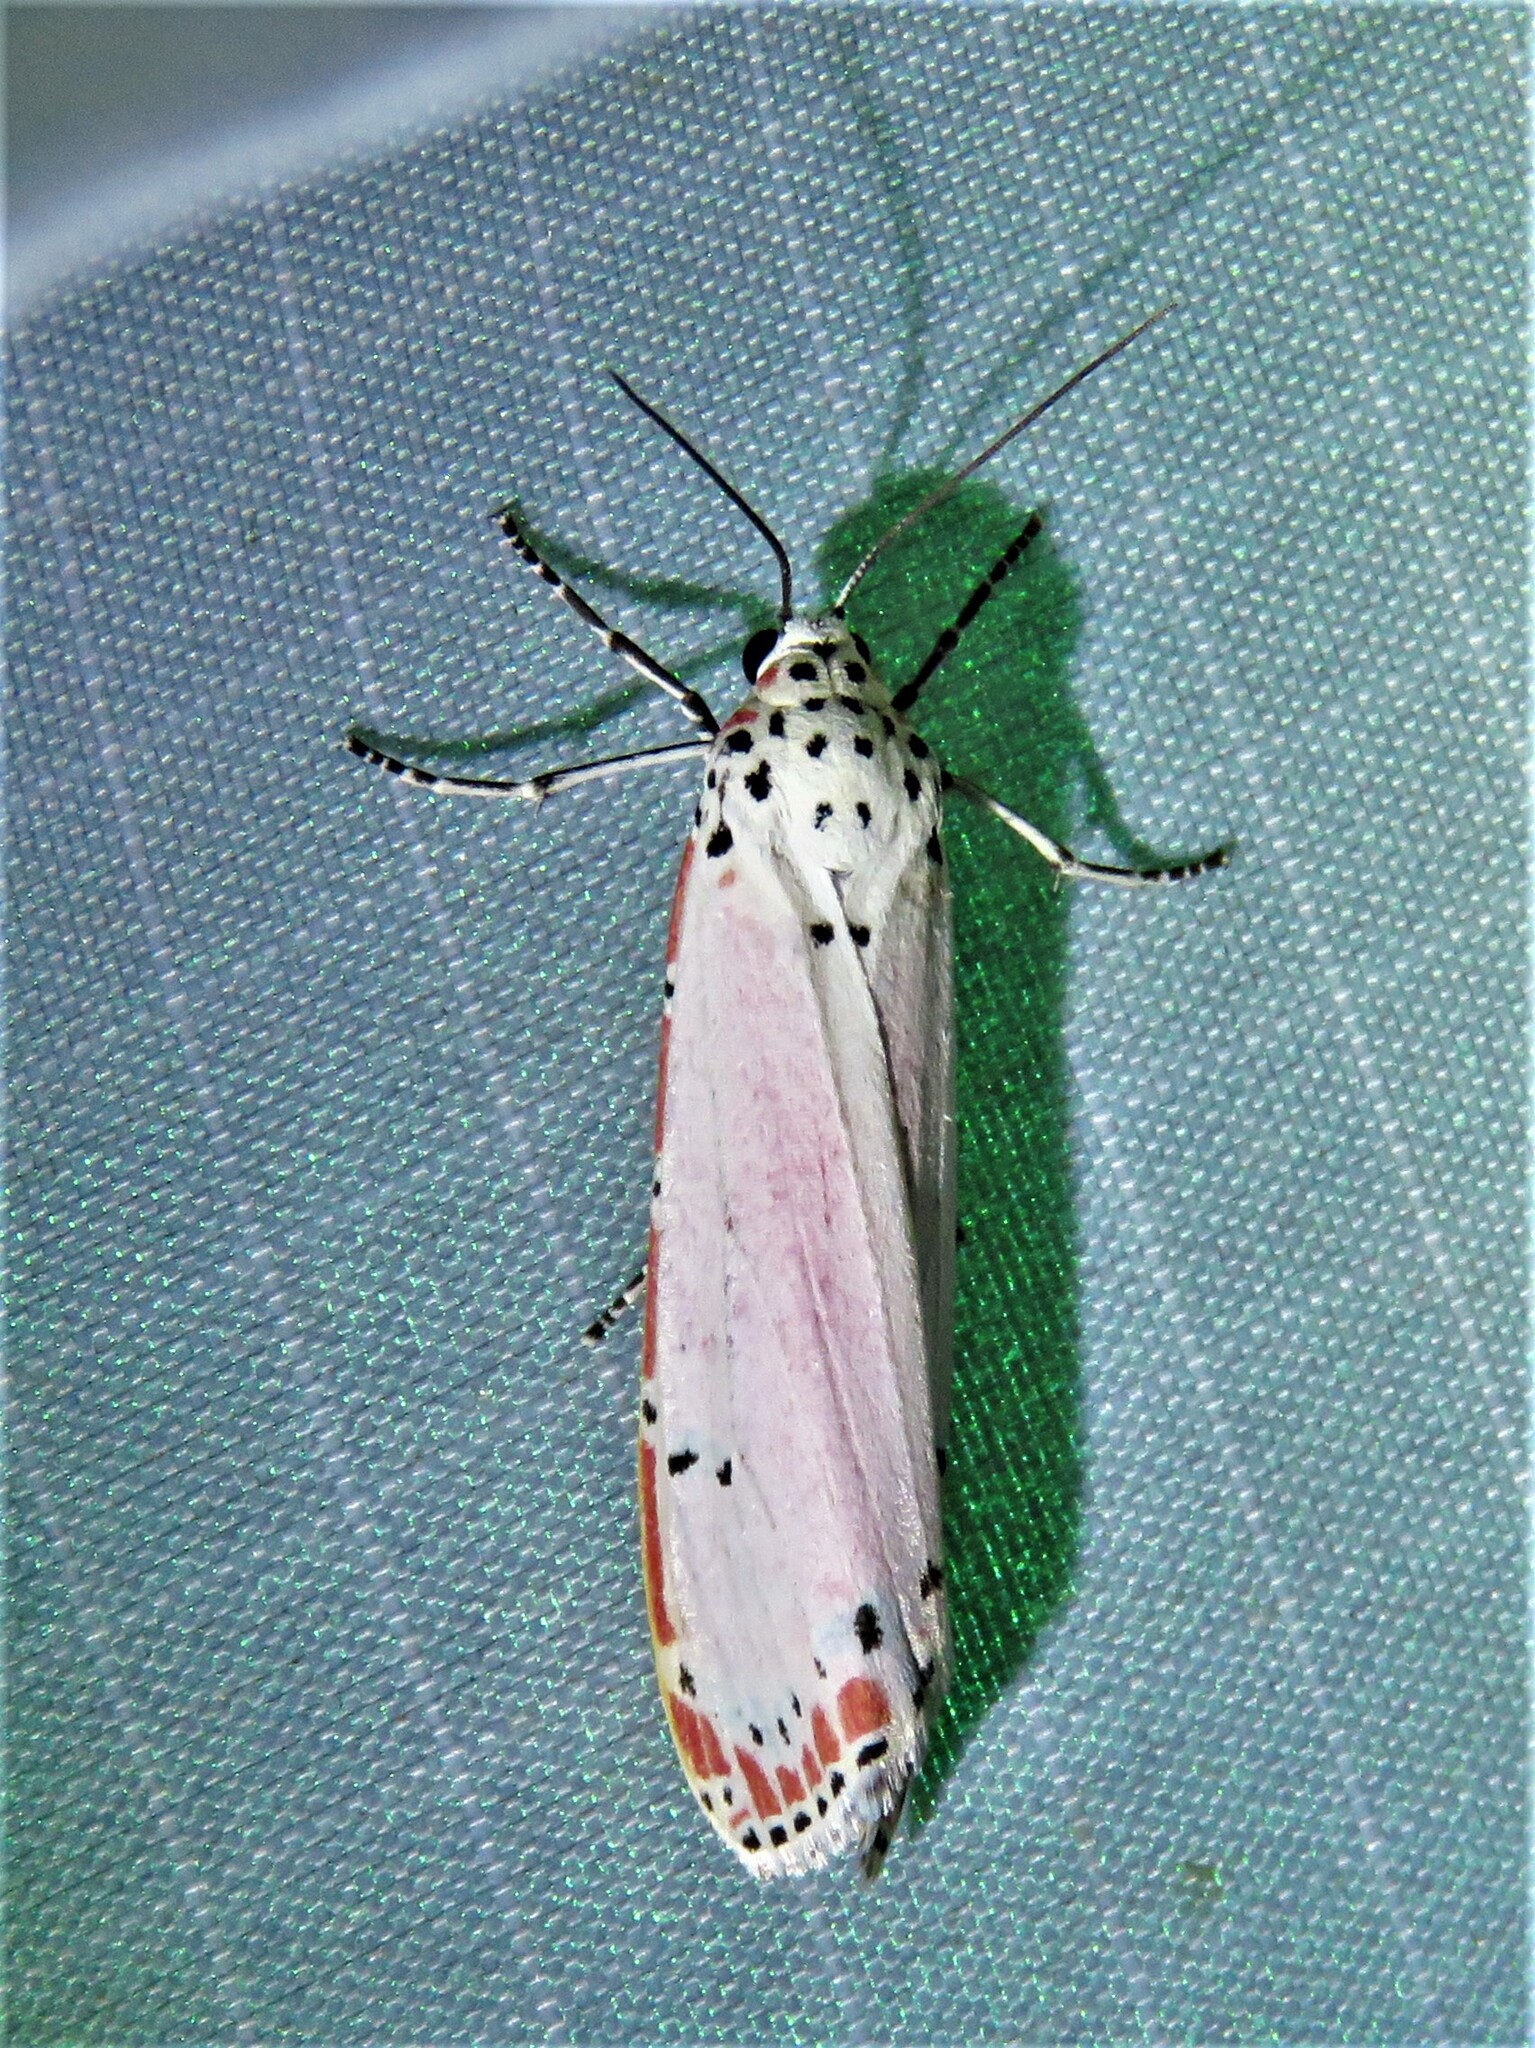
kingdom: Animalia
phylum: Arthropoda
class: Insecta
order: Lepidoptera
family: Erebidae
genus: Utetheisa
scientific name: Utetheisa ornatrix
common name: Beautiful utetheisa
